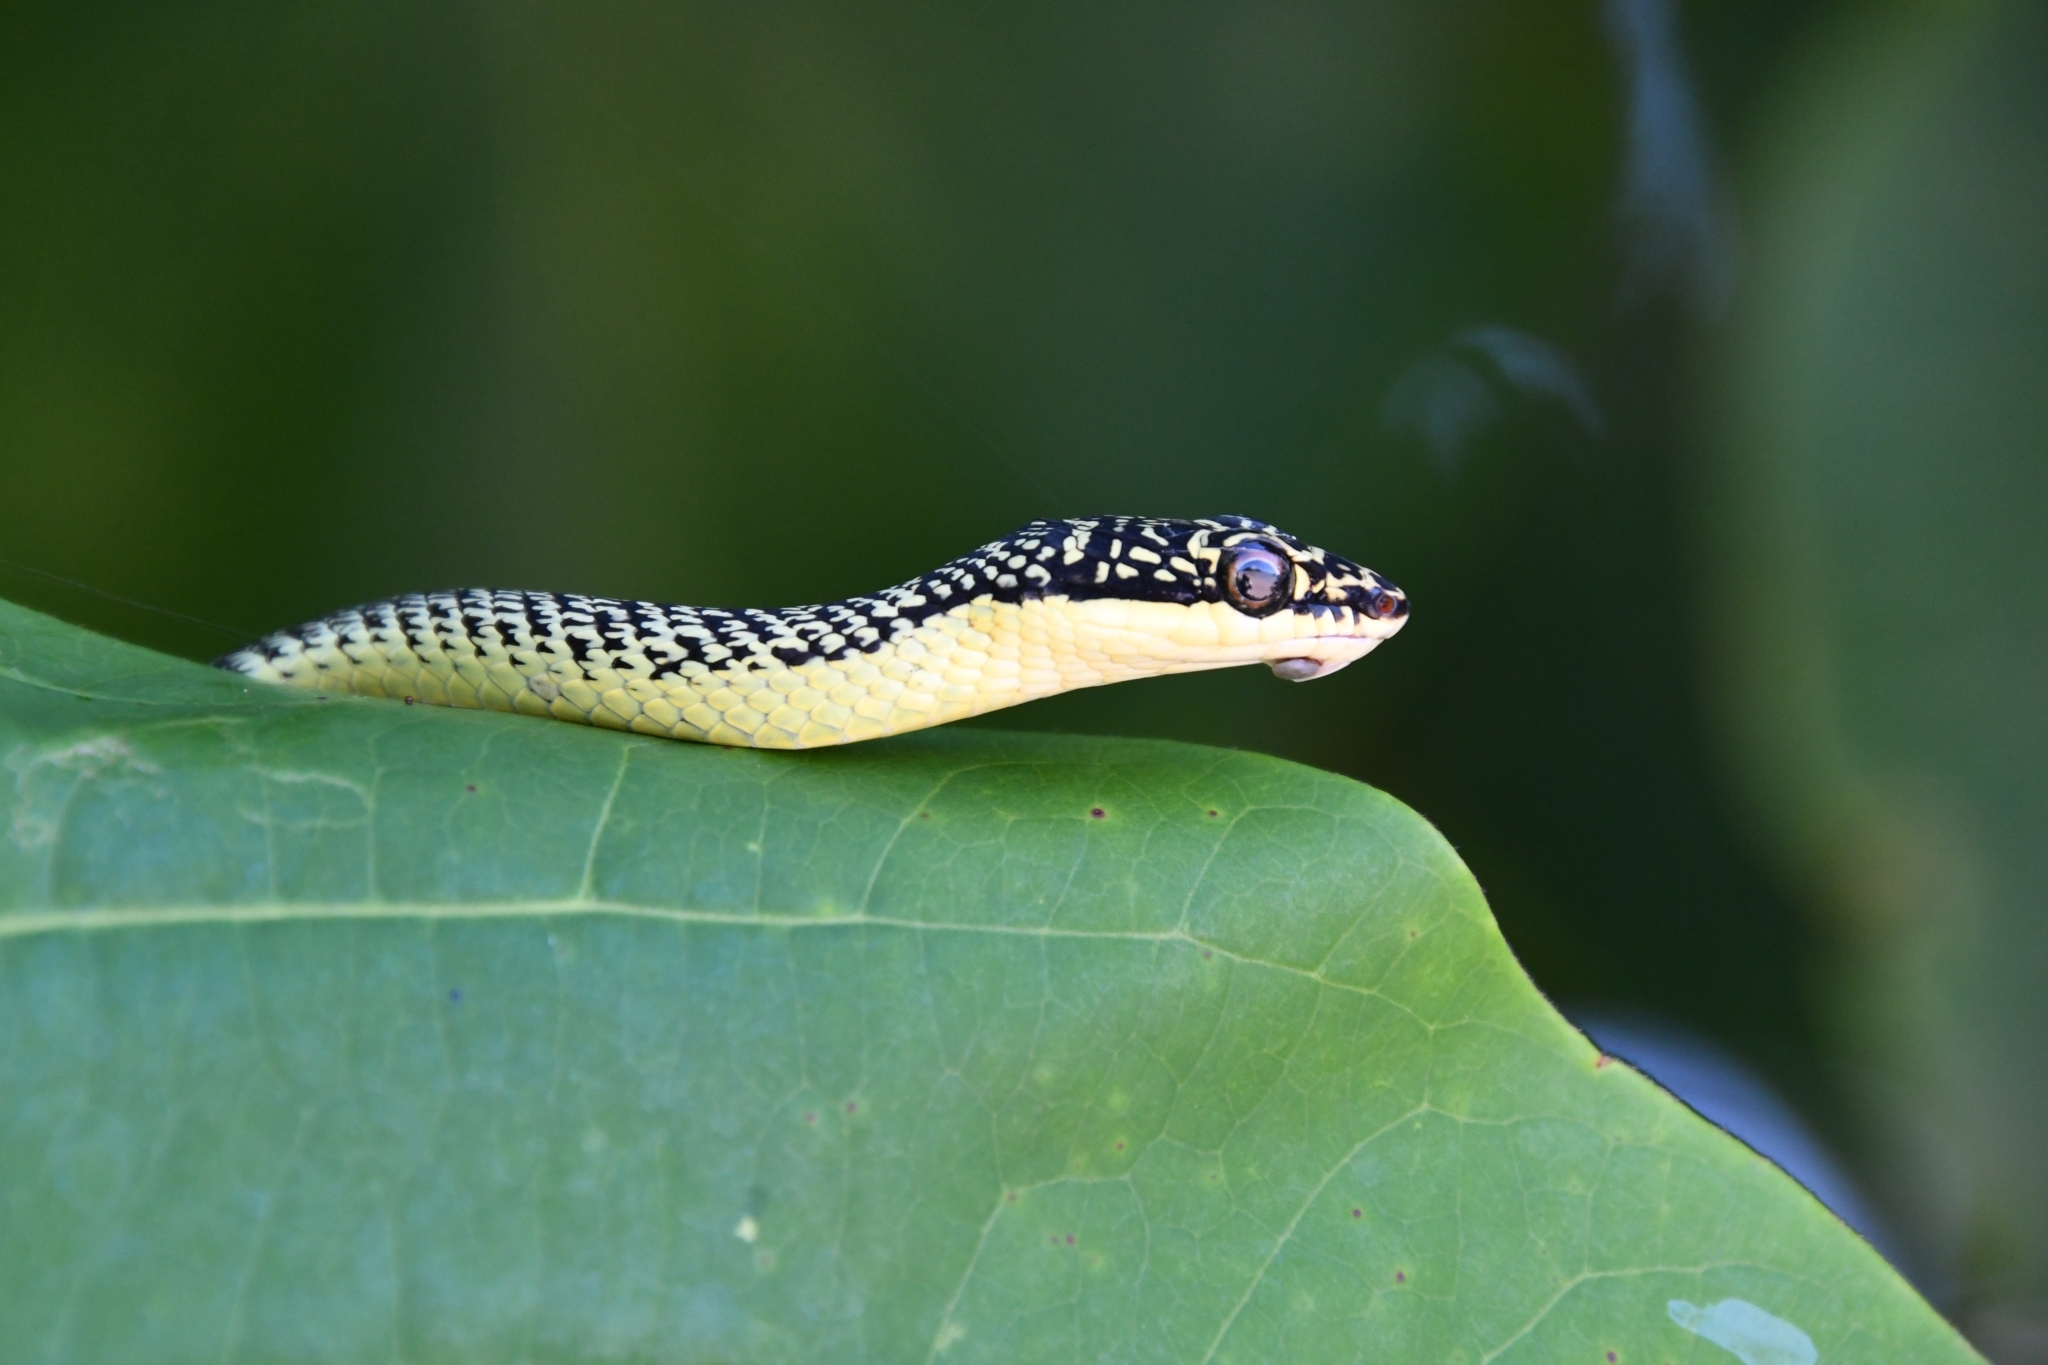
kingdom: Animalia
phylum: Chordata
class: Squamata
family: Colubridae
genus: Chrysopelea
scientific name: Chrysopelea ornata
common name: Golden flying snake
